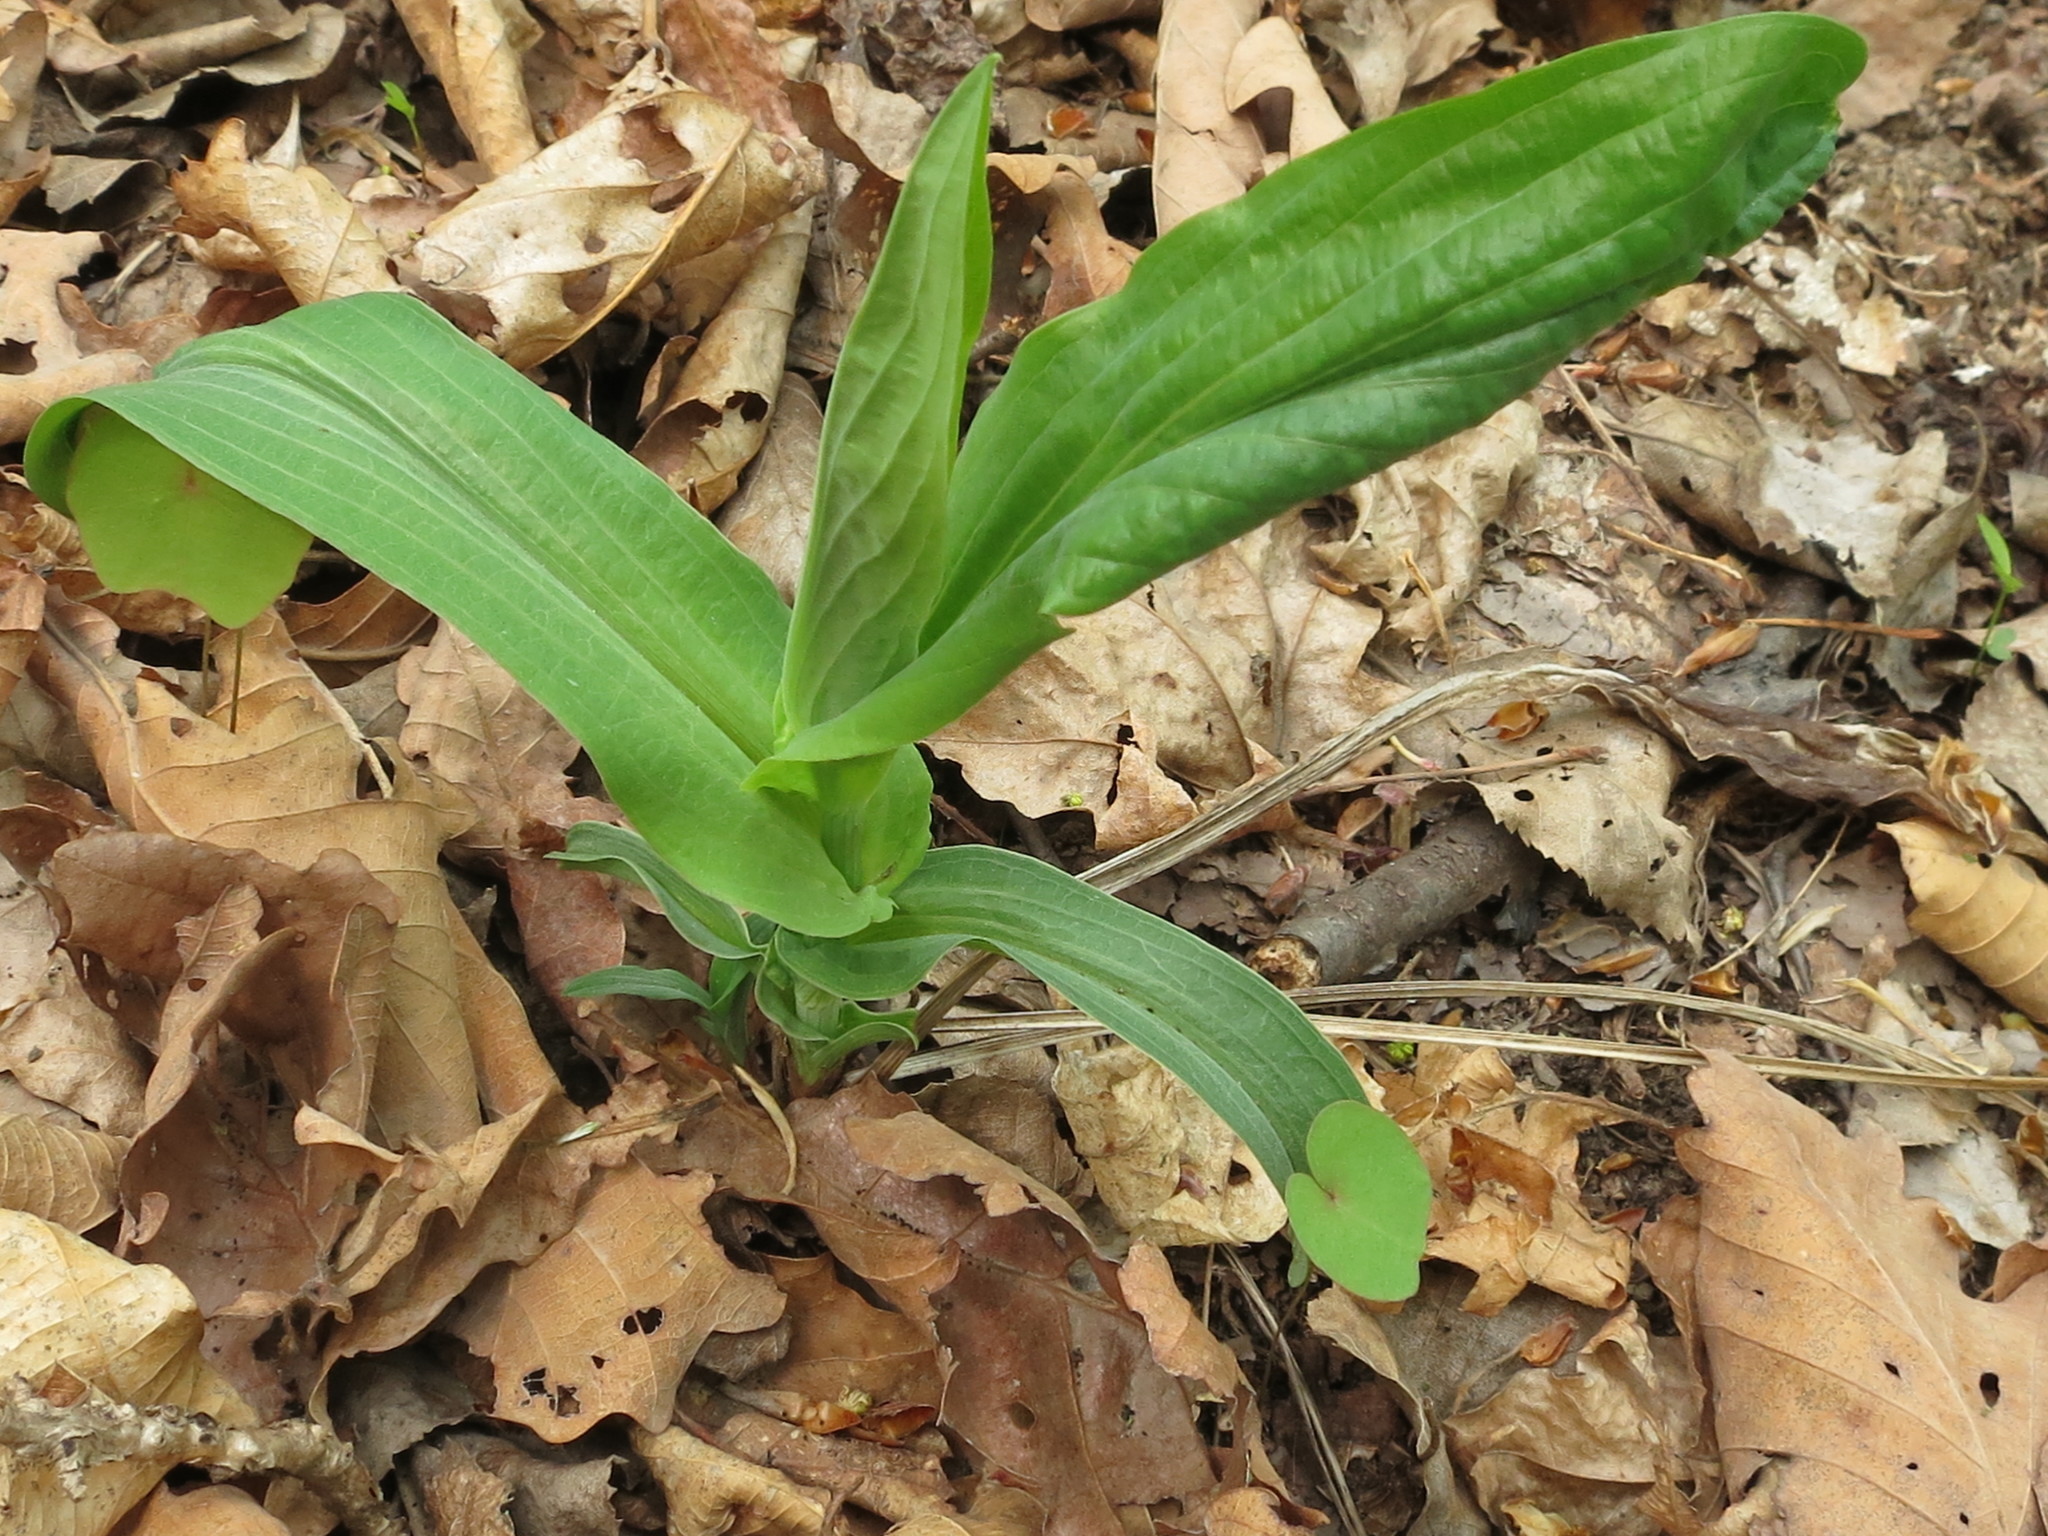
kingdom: Plantae
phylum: Tracheophyta
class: Magnoliopsida
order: Apiales
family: Apiaceae
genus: Bupleurum
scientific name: Bupleurum longiradiatum
